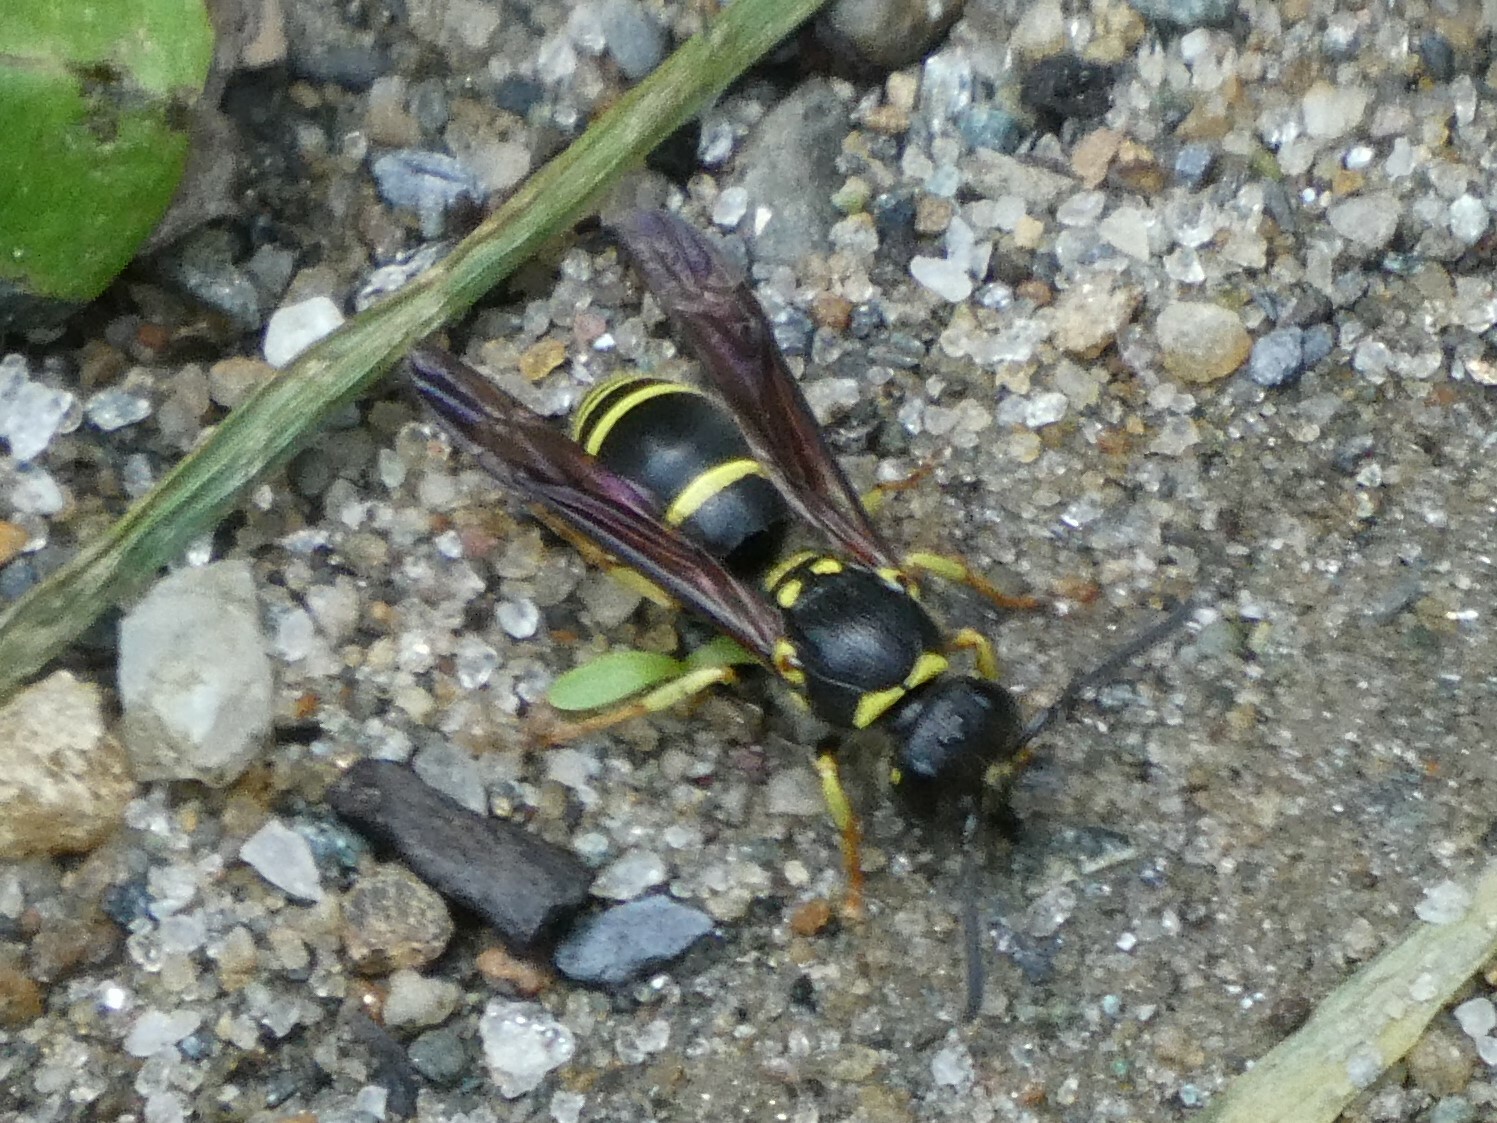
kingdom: Animalia
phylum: Arthropoda
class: Insecta
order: Hymenoptera
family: Vespidae
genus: Ancistrocerus
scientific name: Ancistrocerus adiabatus
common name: Bramble mason wasp
